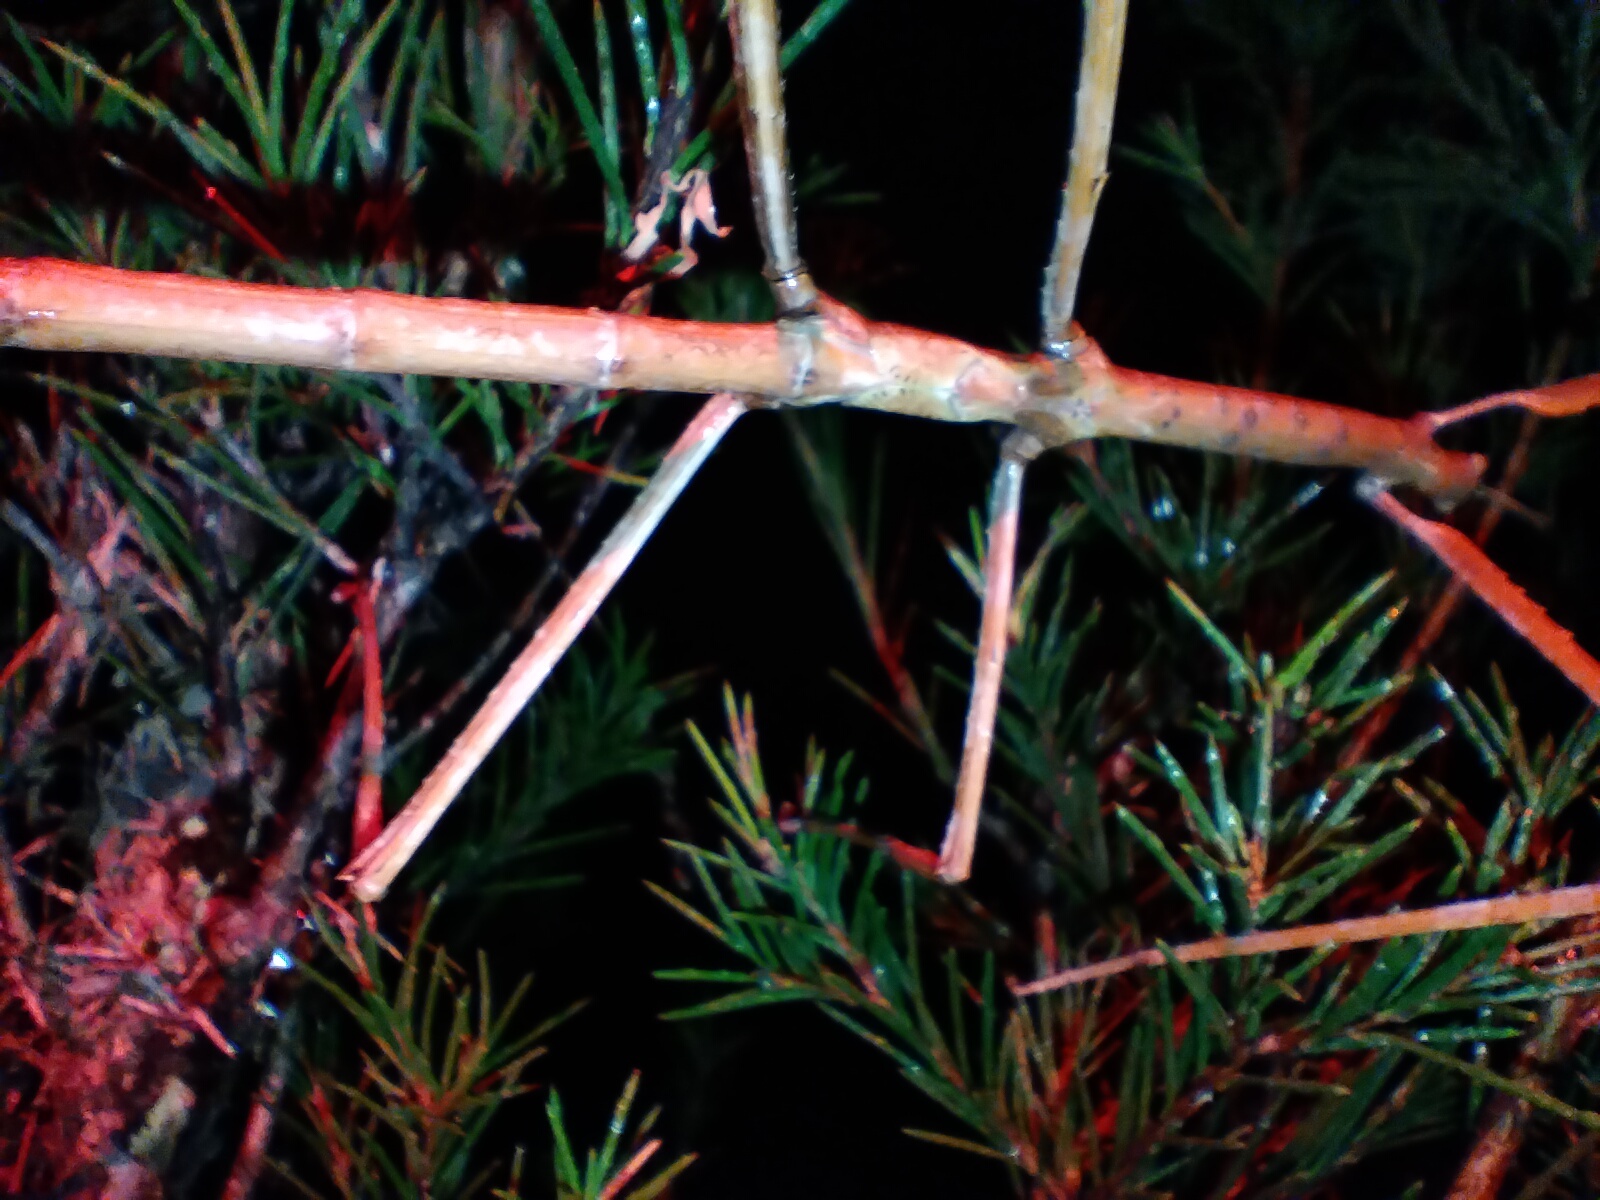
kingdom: Animalia
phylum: Arthropoda
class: Insecta
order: Phasmida
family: Phasmatidae
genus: Ctenomorpha
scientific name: Ctenomorpha marginipennis
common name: Margined-winged stick-insect
